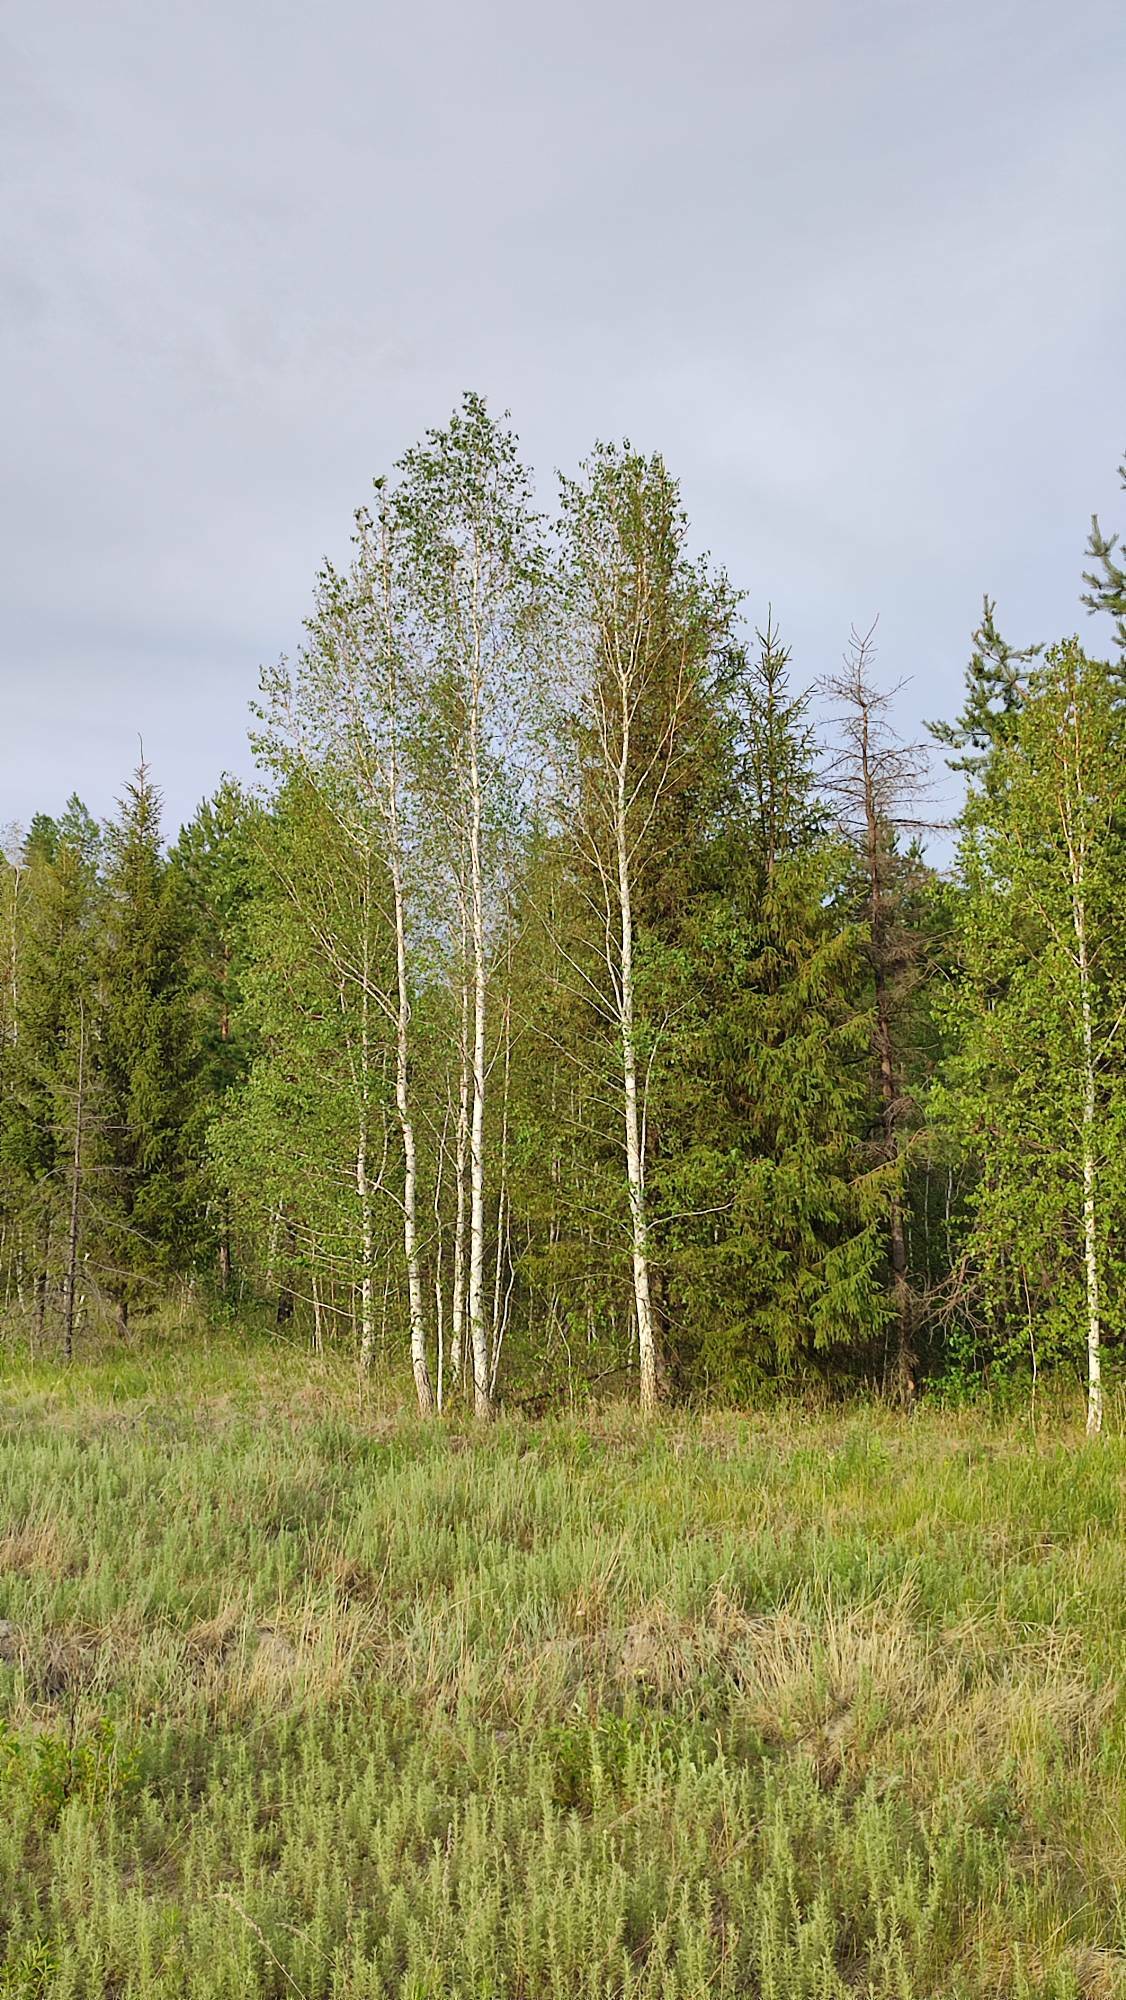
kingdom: Plantae
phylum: Tracheophyta
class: Magnoliopsida
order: Fagales
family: Betulaceae
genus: Betula
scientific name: Betula pendula
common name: Silver birch
